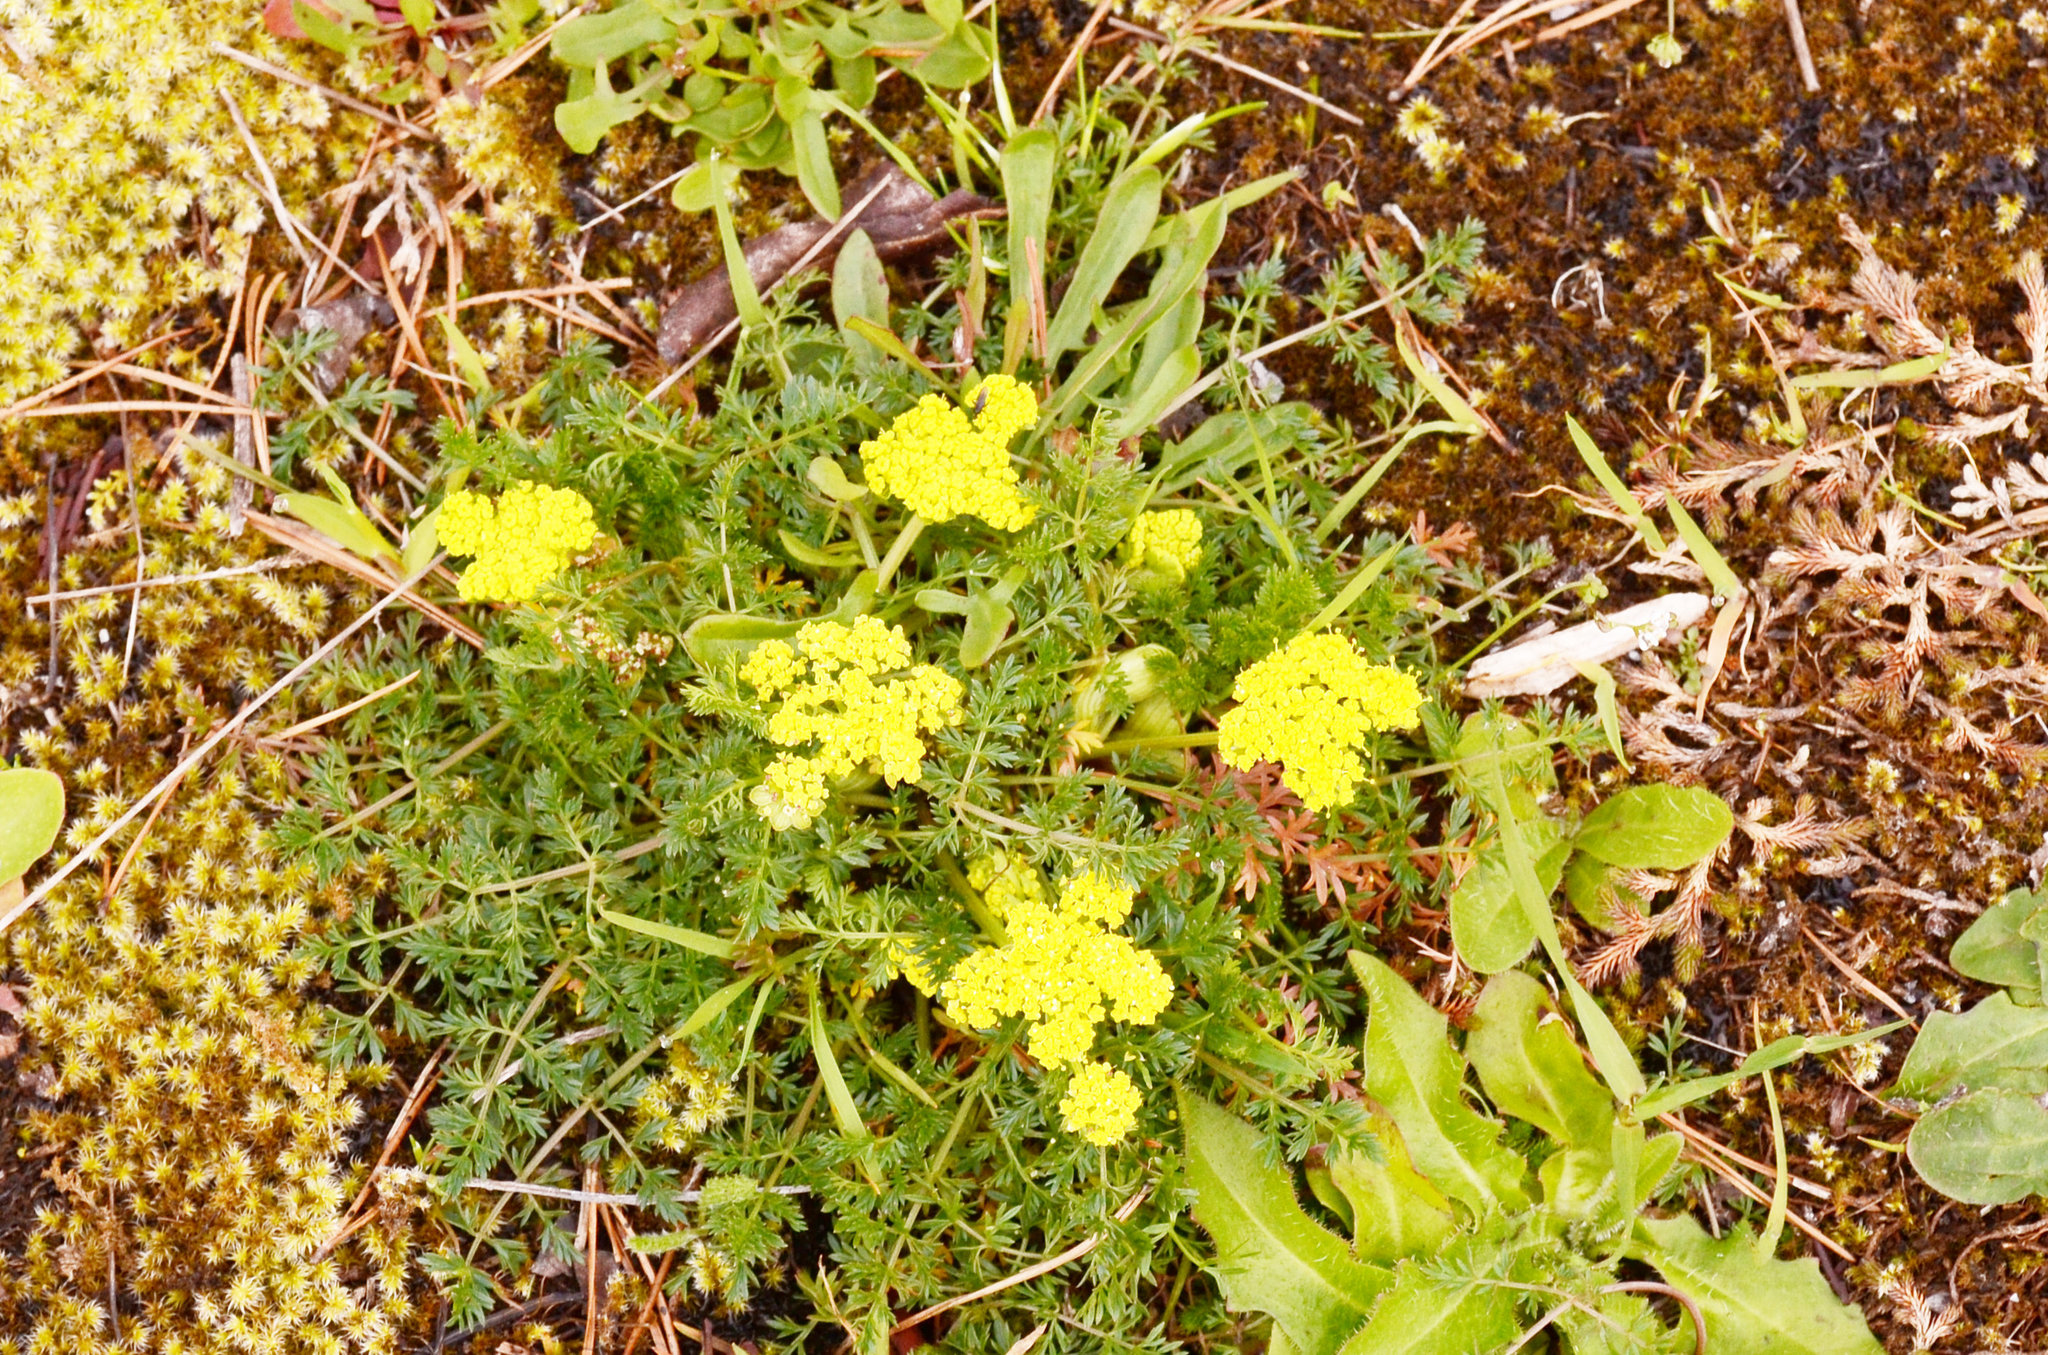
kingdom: Plantae
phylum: Tracheophyta
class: Magnoliopsida
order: Apiales
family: Apiaceae
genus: Lomatium
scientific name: Lomatium utriculatum
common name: Fine-leaf desert-parsley
